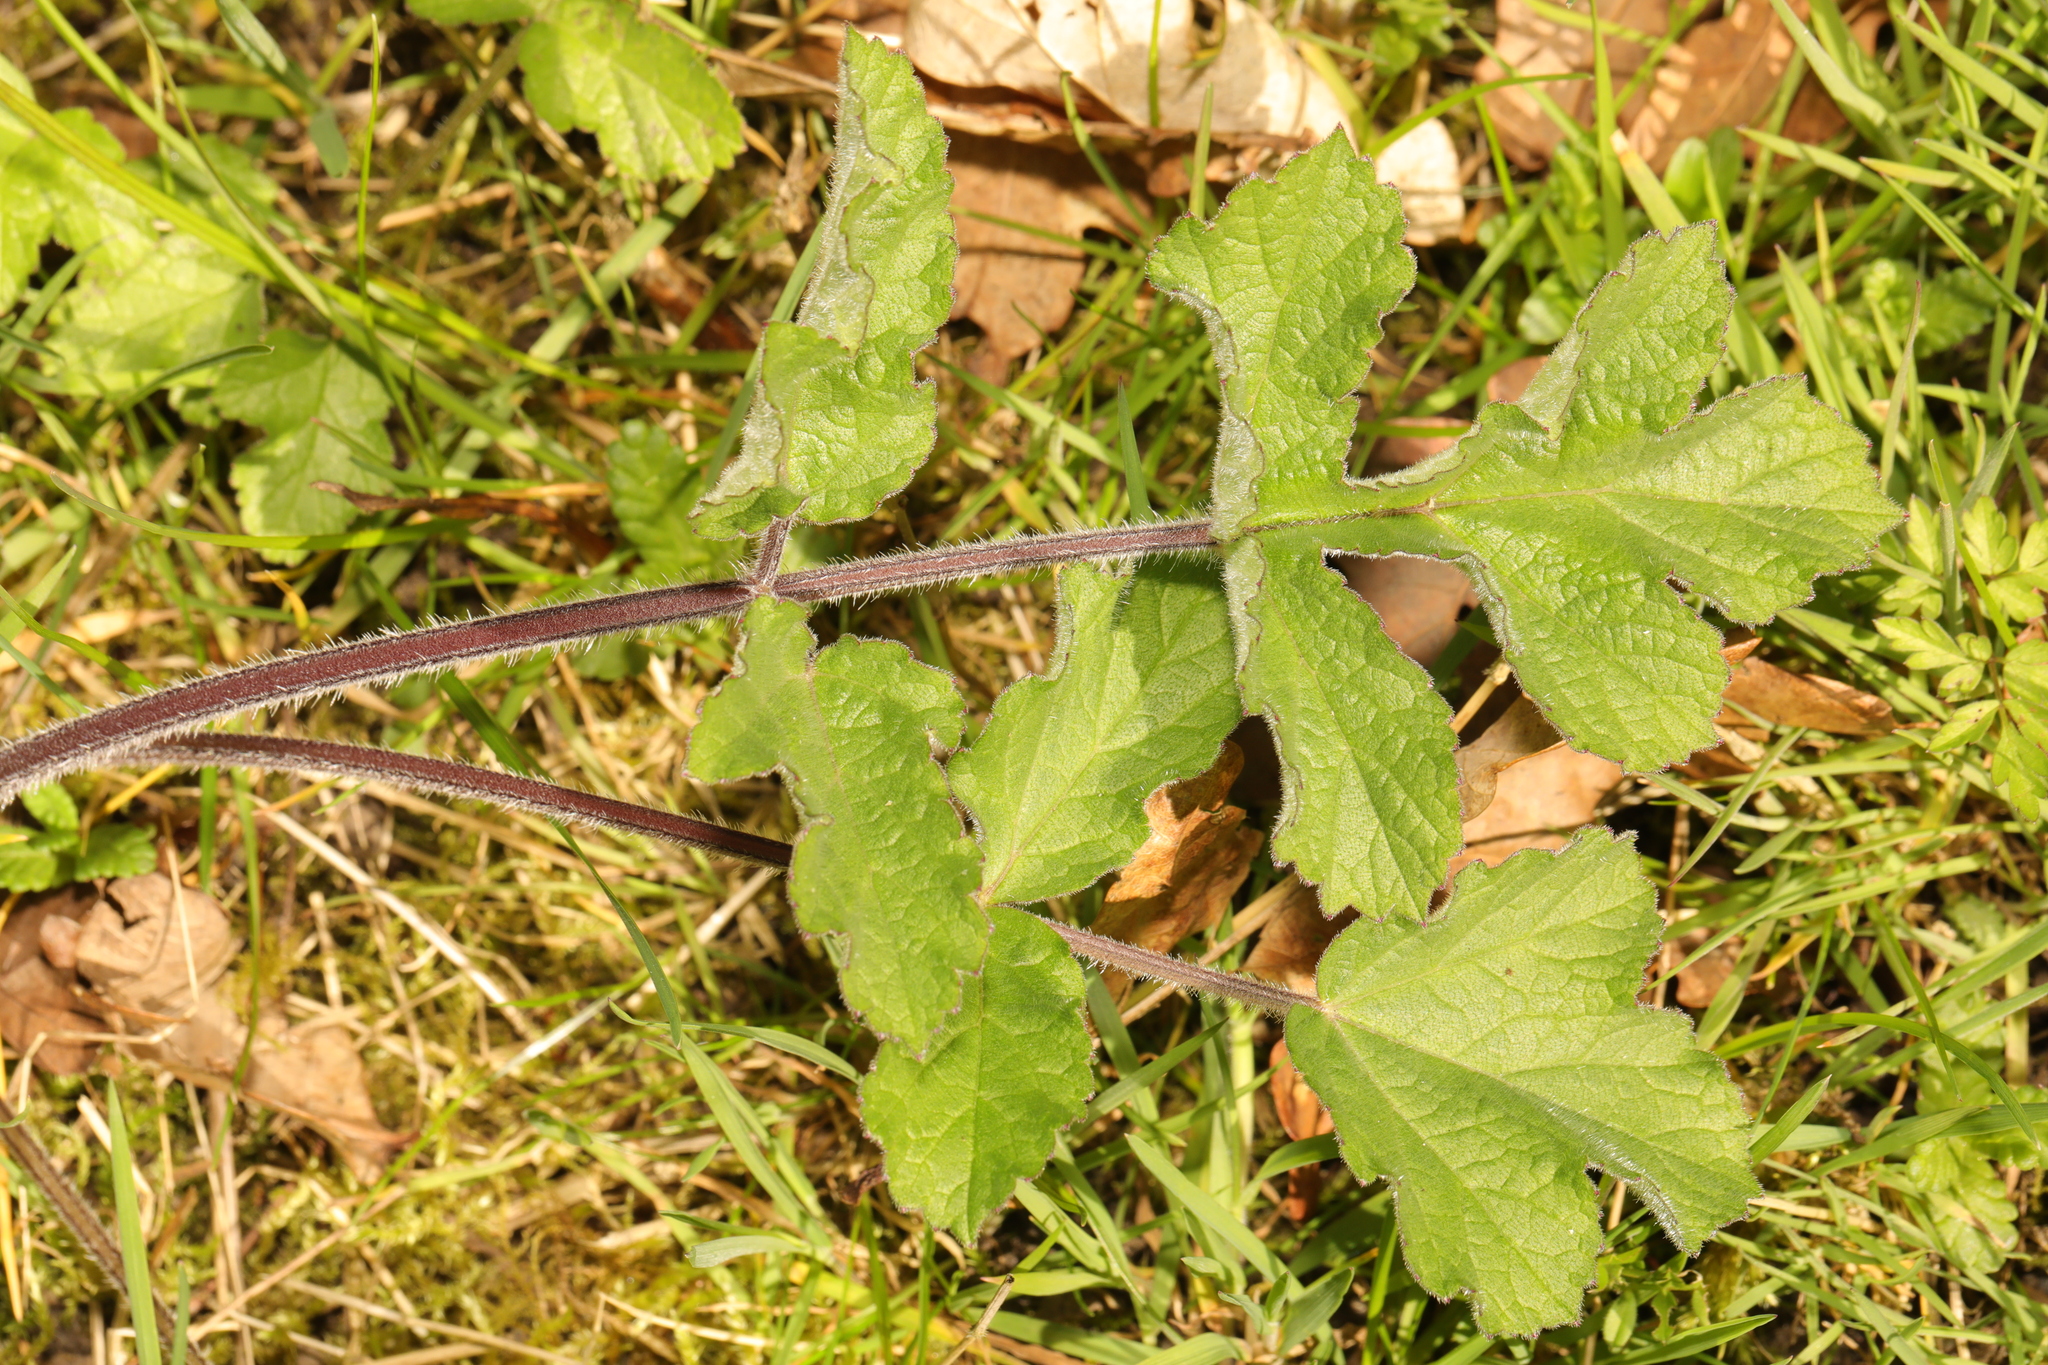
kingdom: Plantae
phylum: Tracheophyta
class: Magnoliopsida
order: Apiales
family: Apiaceae
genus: Heracleum
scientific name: Heracleum sphondylium
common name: Hogweed
